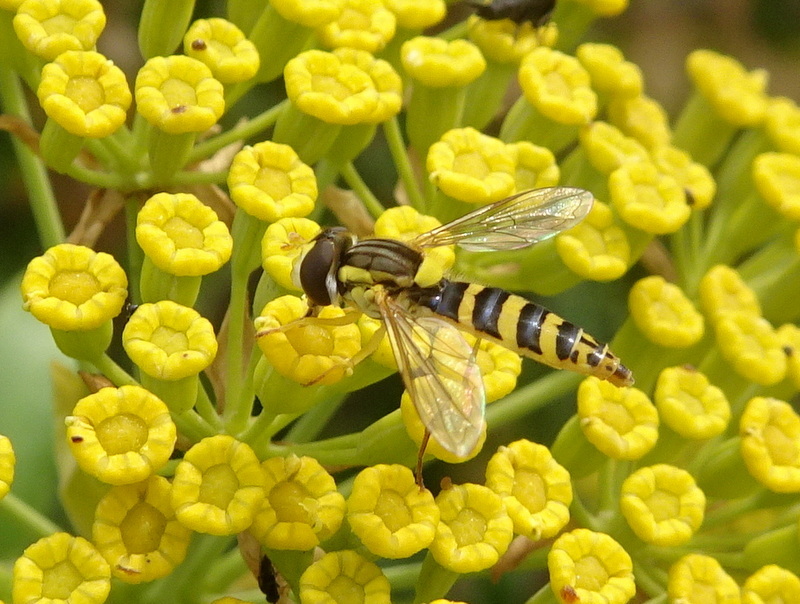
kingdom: Animalia
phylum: Arthropoda
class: Insecta
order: Diptera
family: Syrphidae
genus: Sphaerophoria
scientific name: Sphaerophoria scripta
